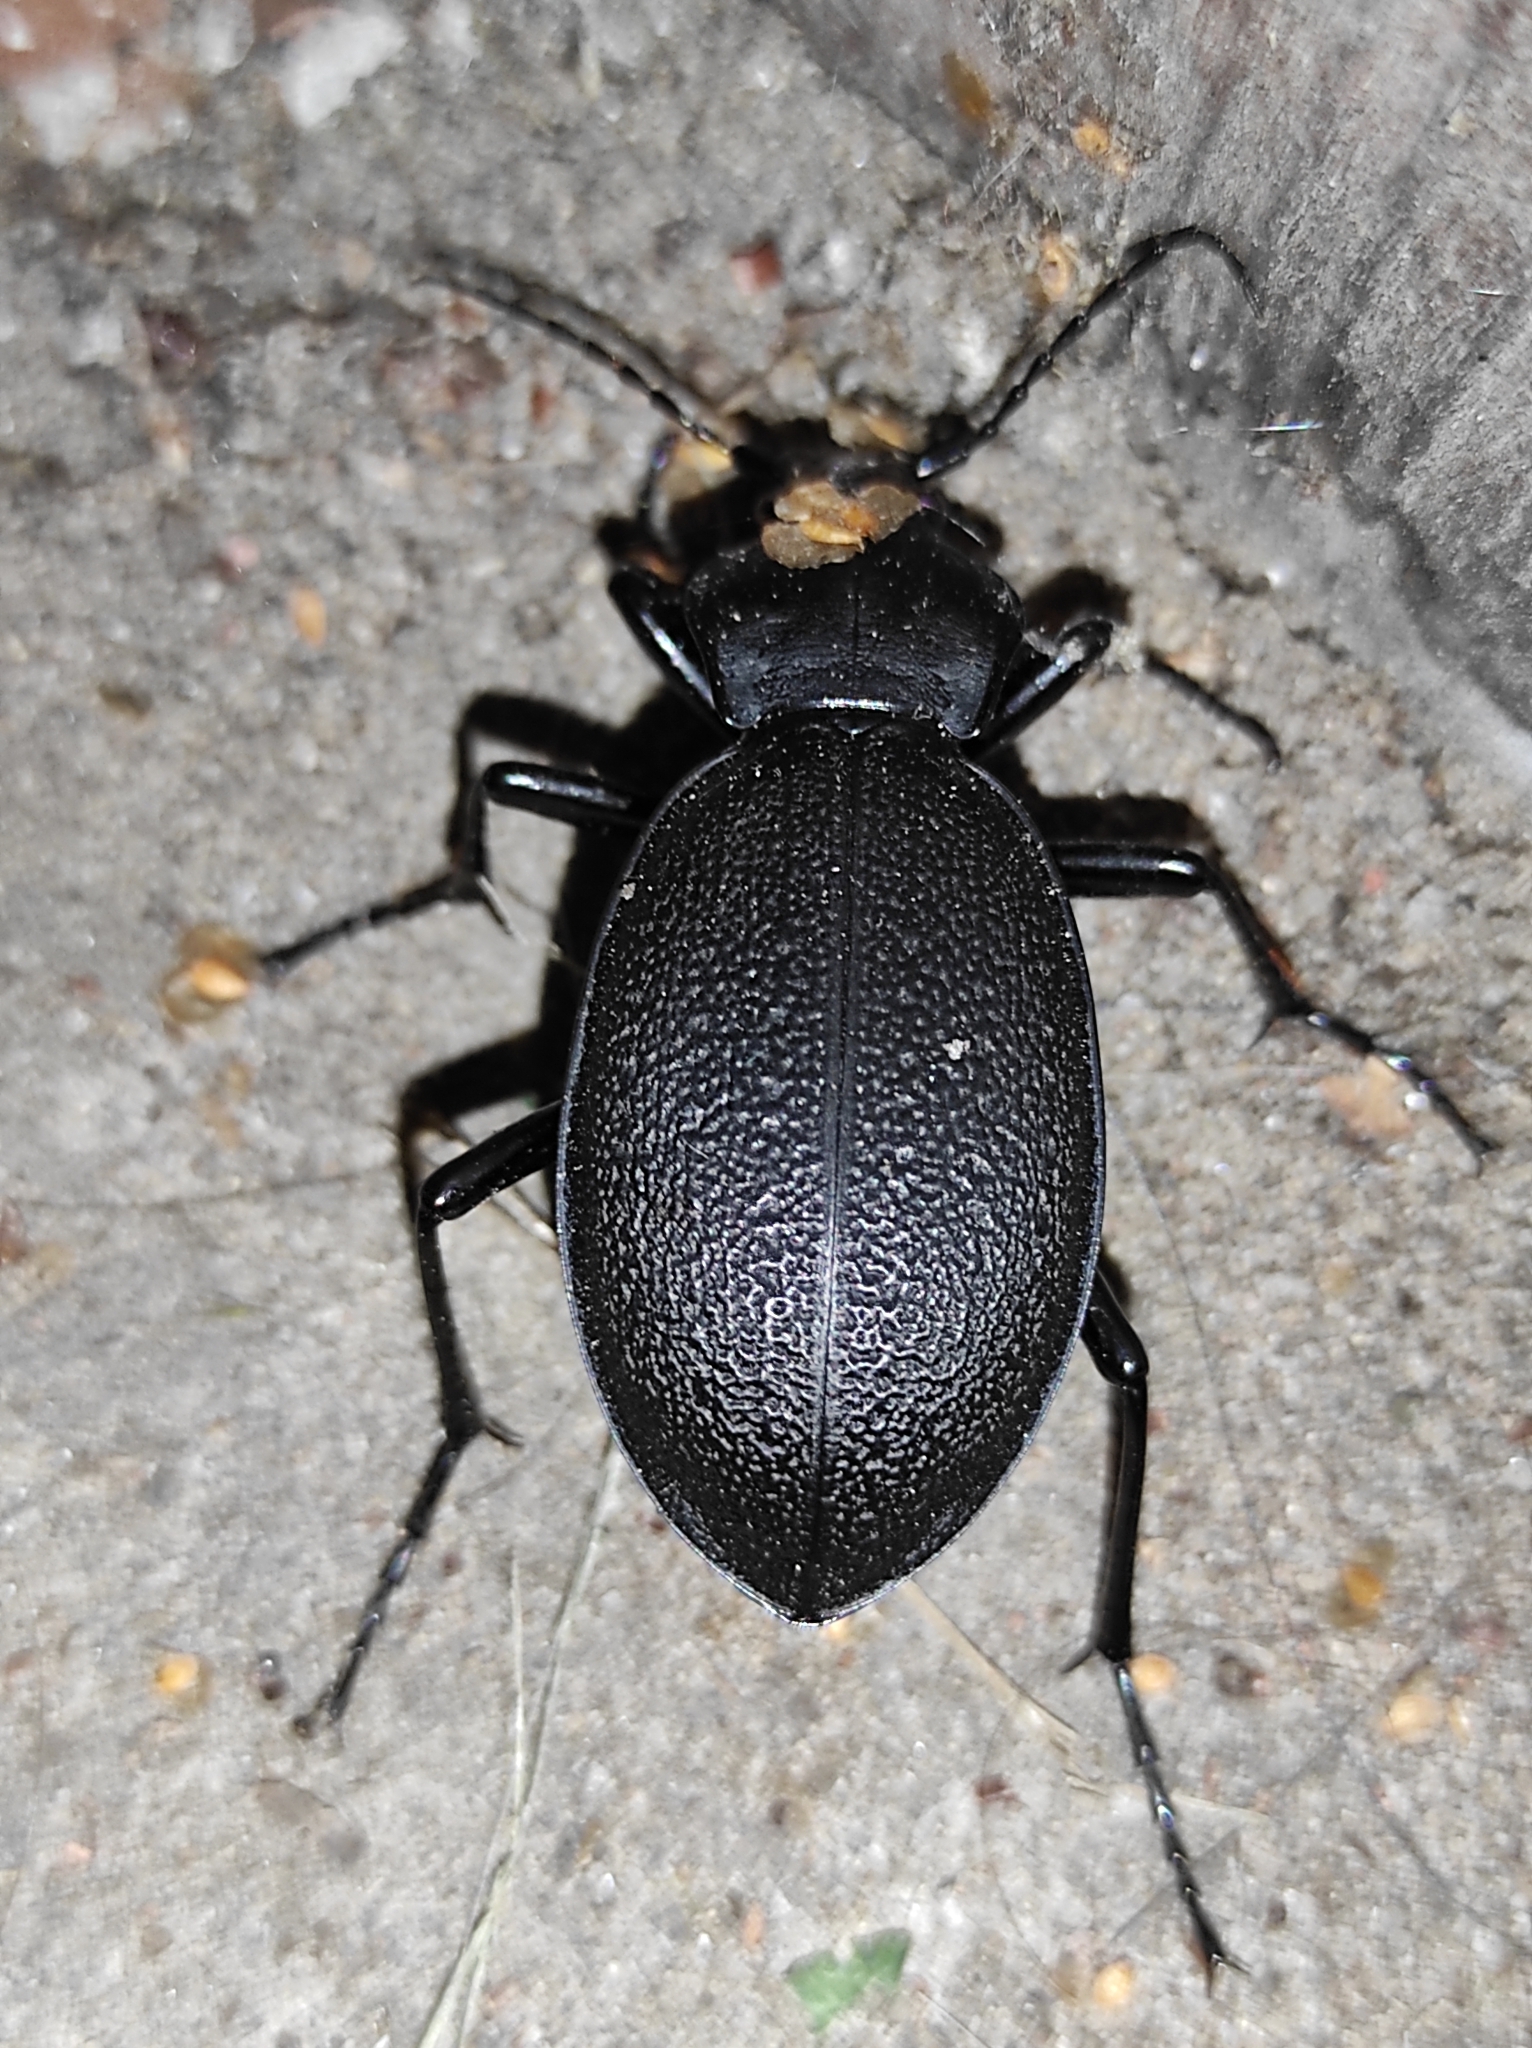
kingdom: Animalia
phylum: Arthropoda
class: Insecta
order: Coleoptera
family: Carabidae
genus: Carabus
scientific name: Carabus coriaceus
